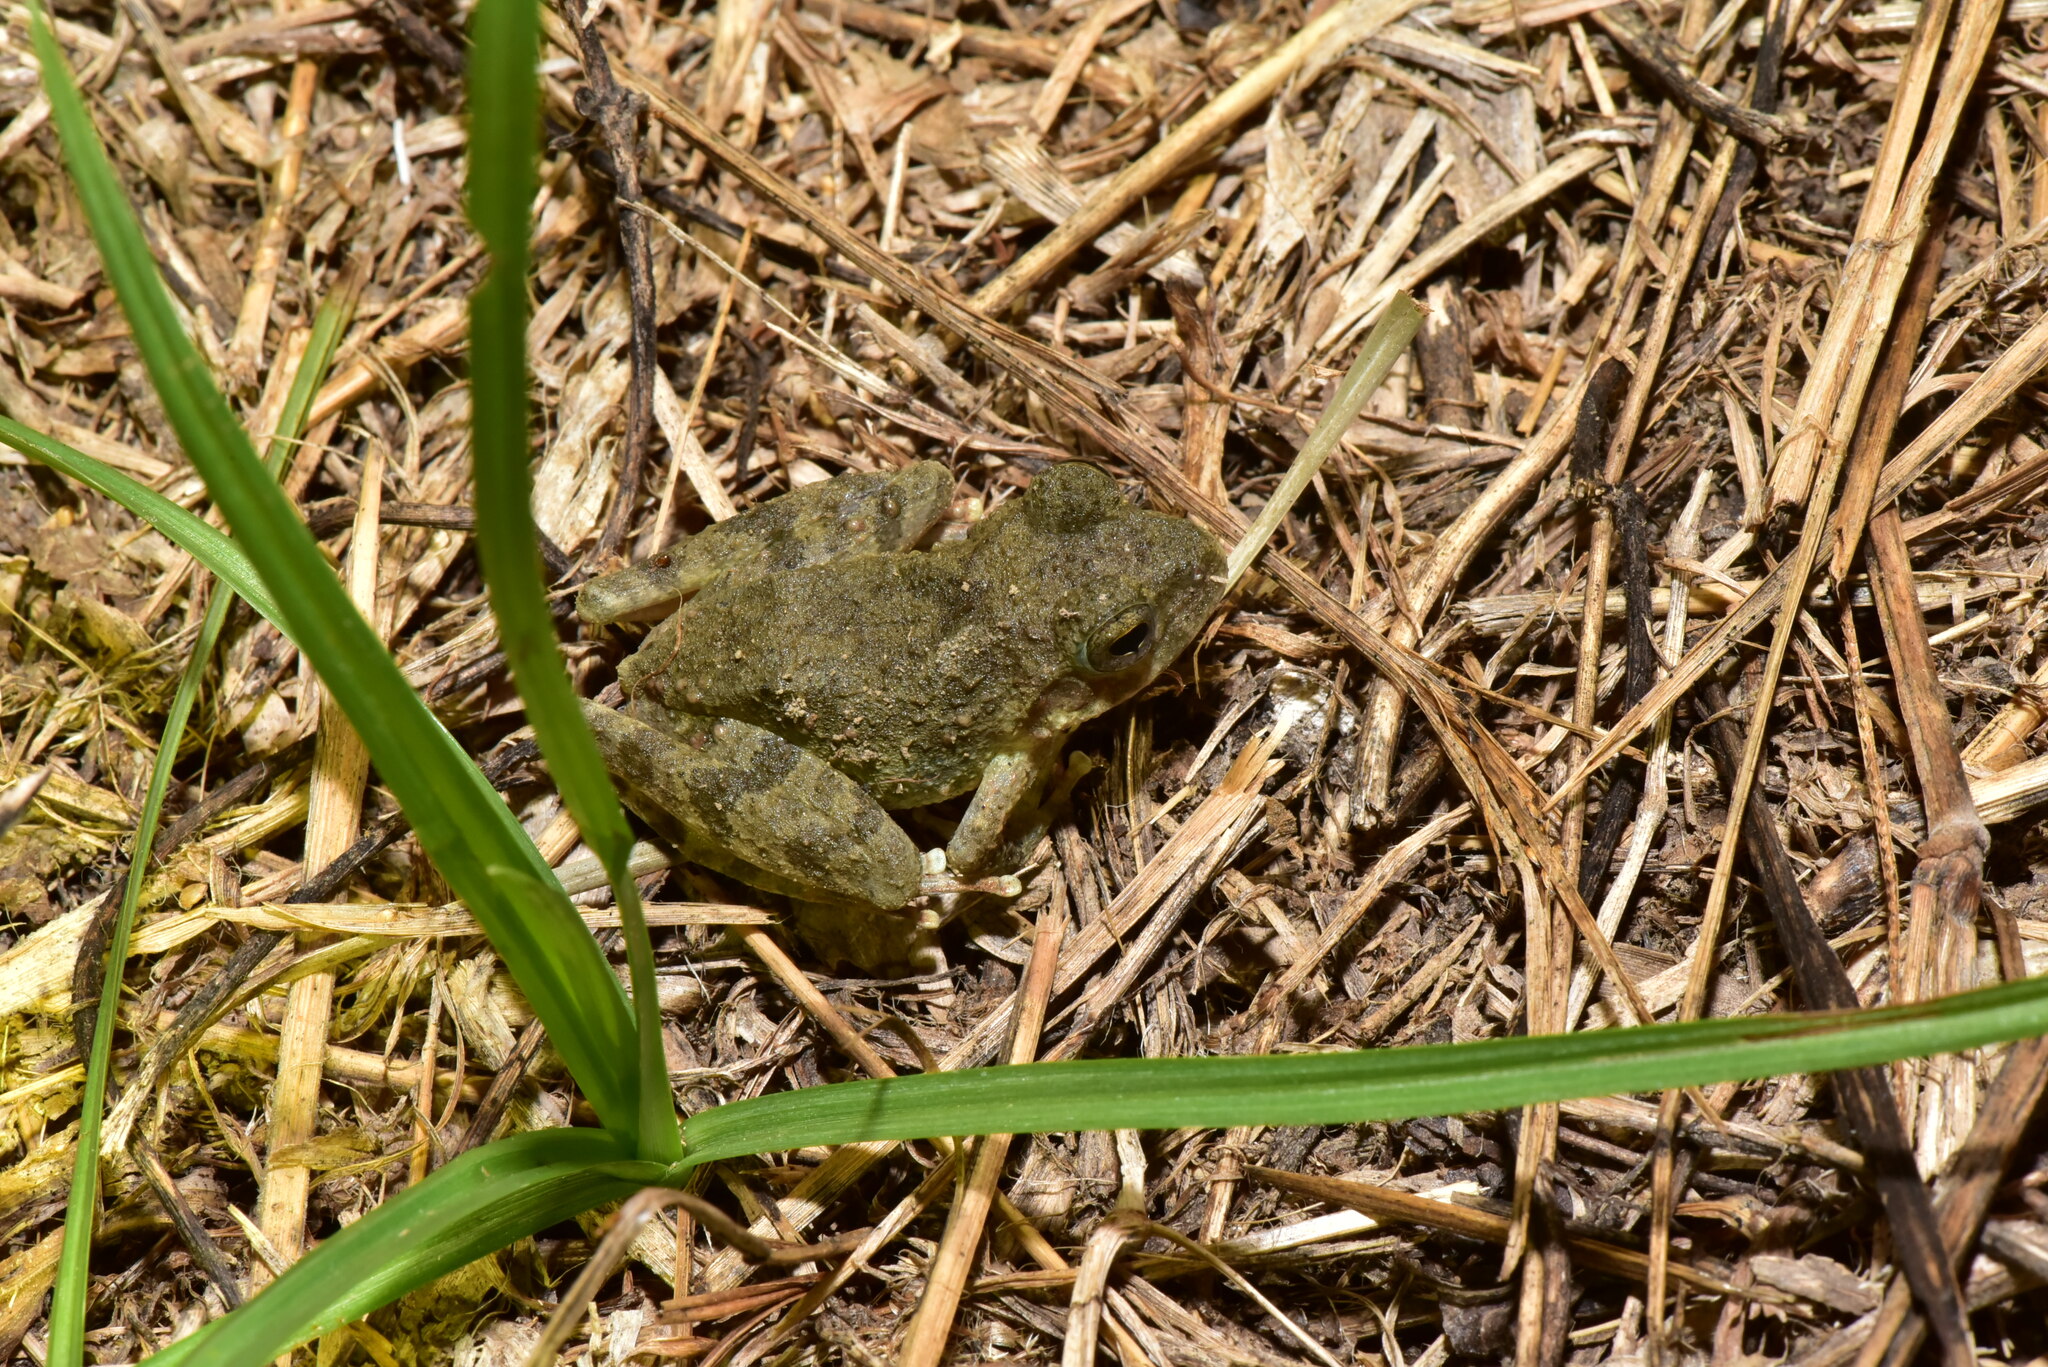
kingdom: Animalia
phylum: Chordata
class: Amphibia
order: Anura
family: Rhacophoridae
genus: Buergeria
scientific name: Buergeria otai
